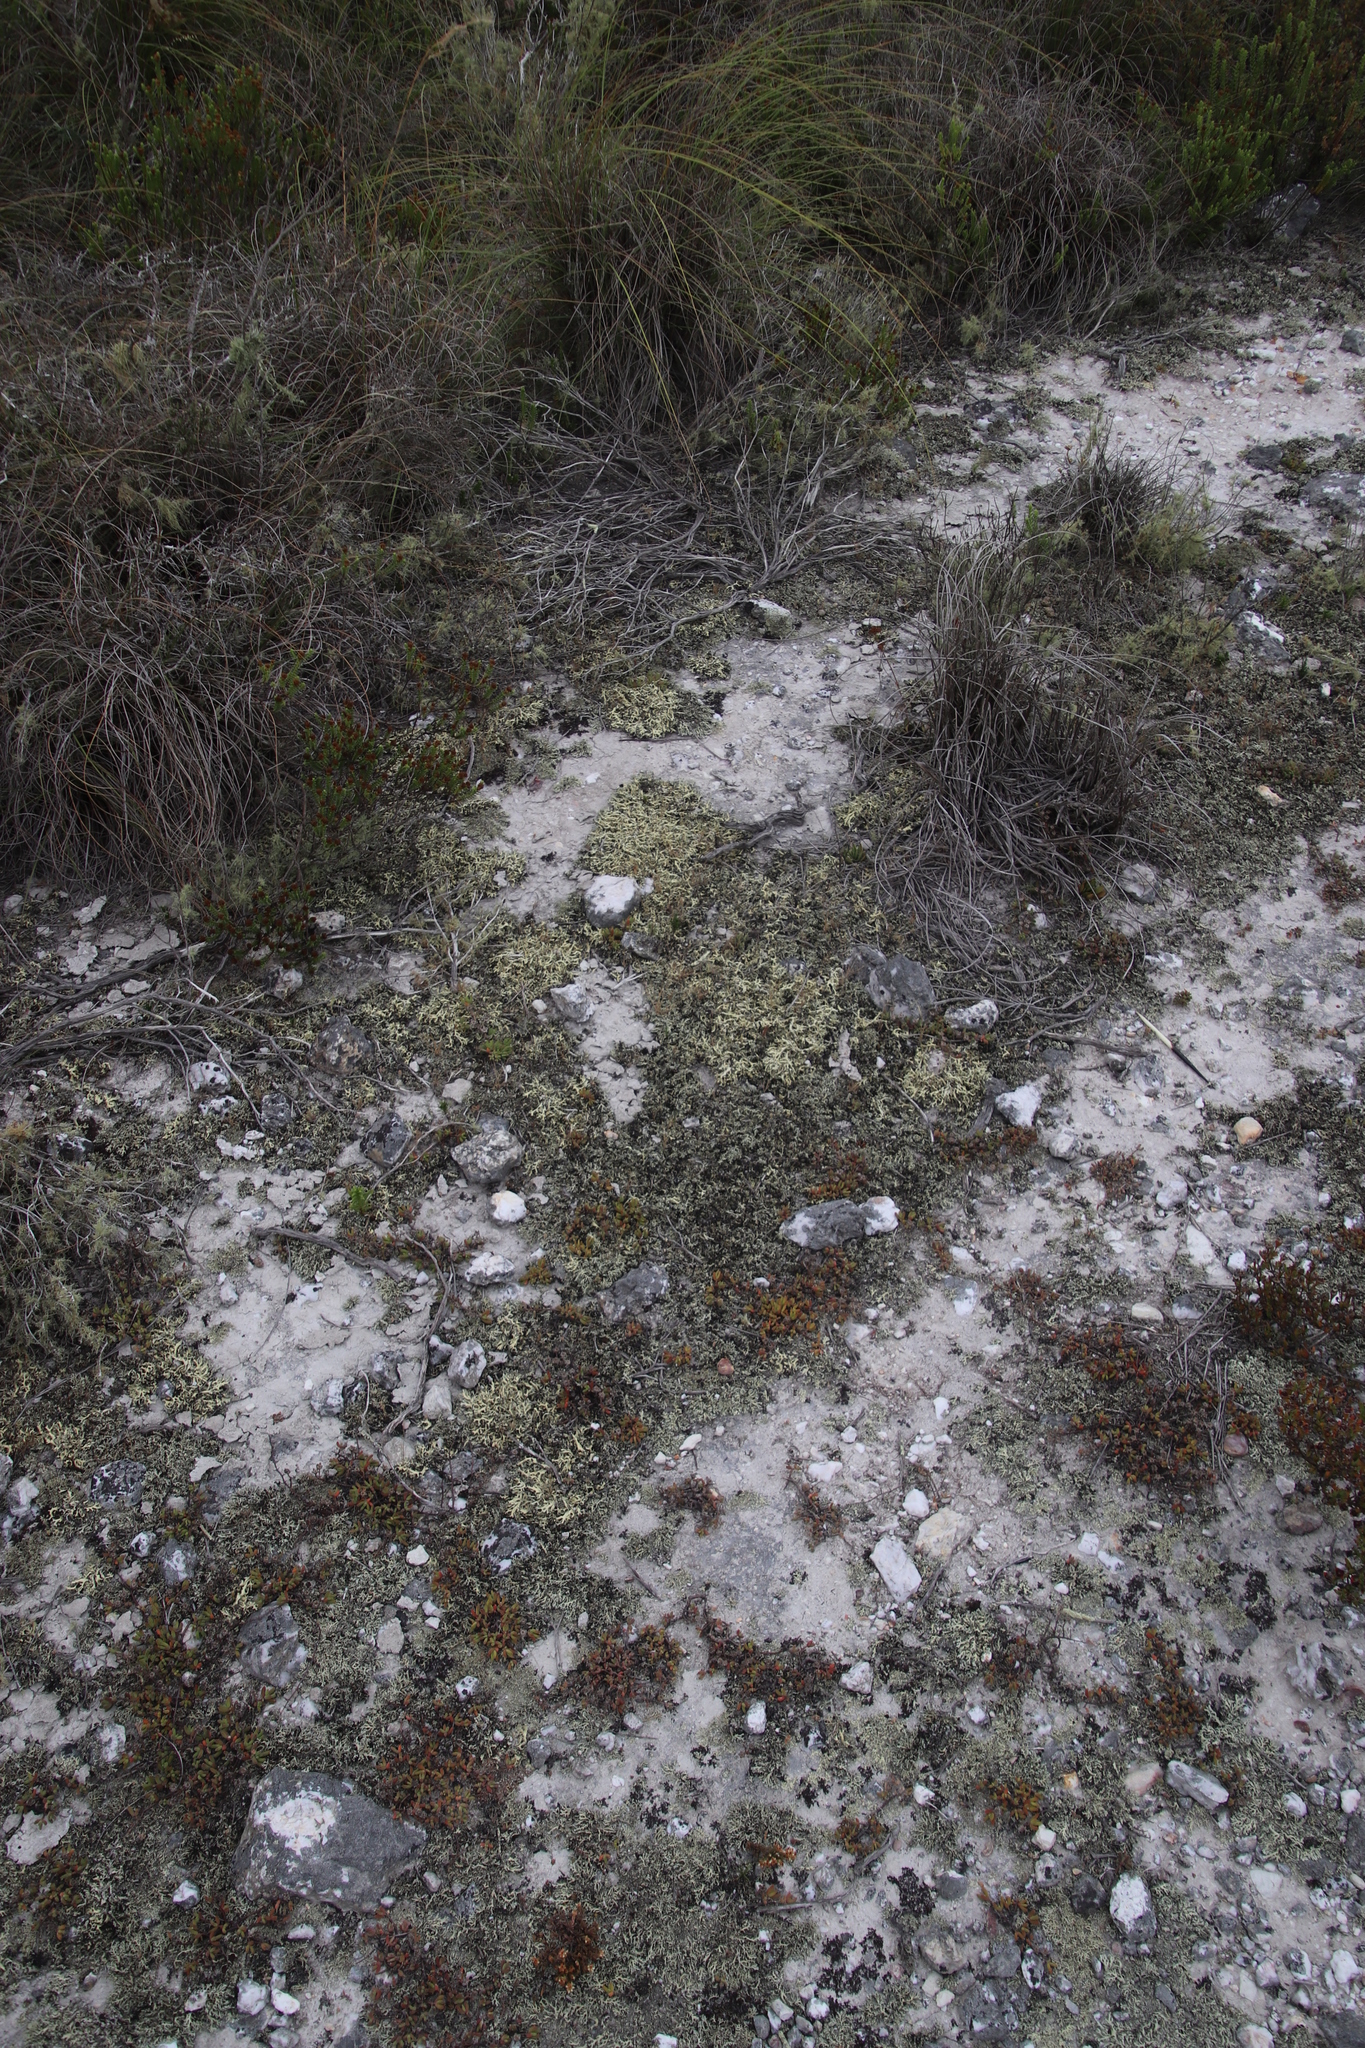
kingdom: Fungi
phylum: Ascomycota
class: Lecanoromycetes
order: Lecanorales
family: Parmeliaceae
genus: Xanthoparmelia
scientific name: Xanthoparmelia subconvoluta
